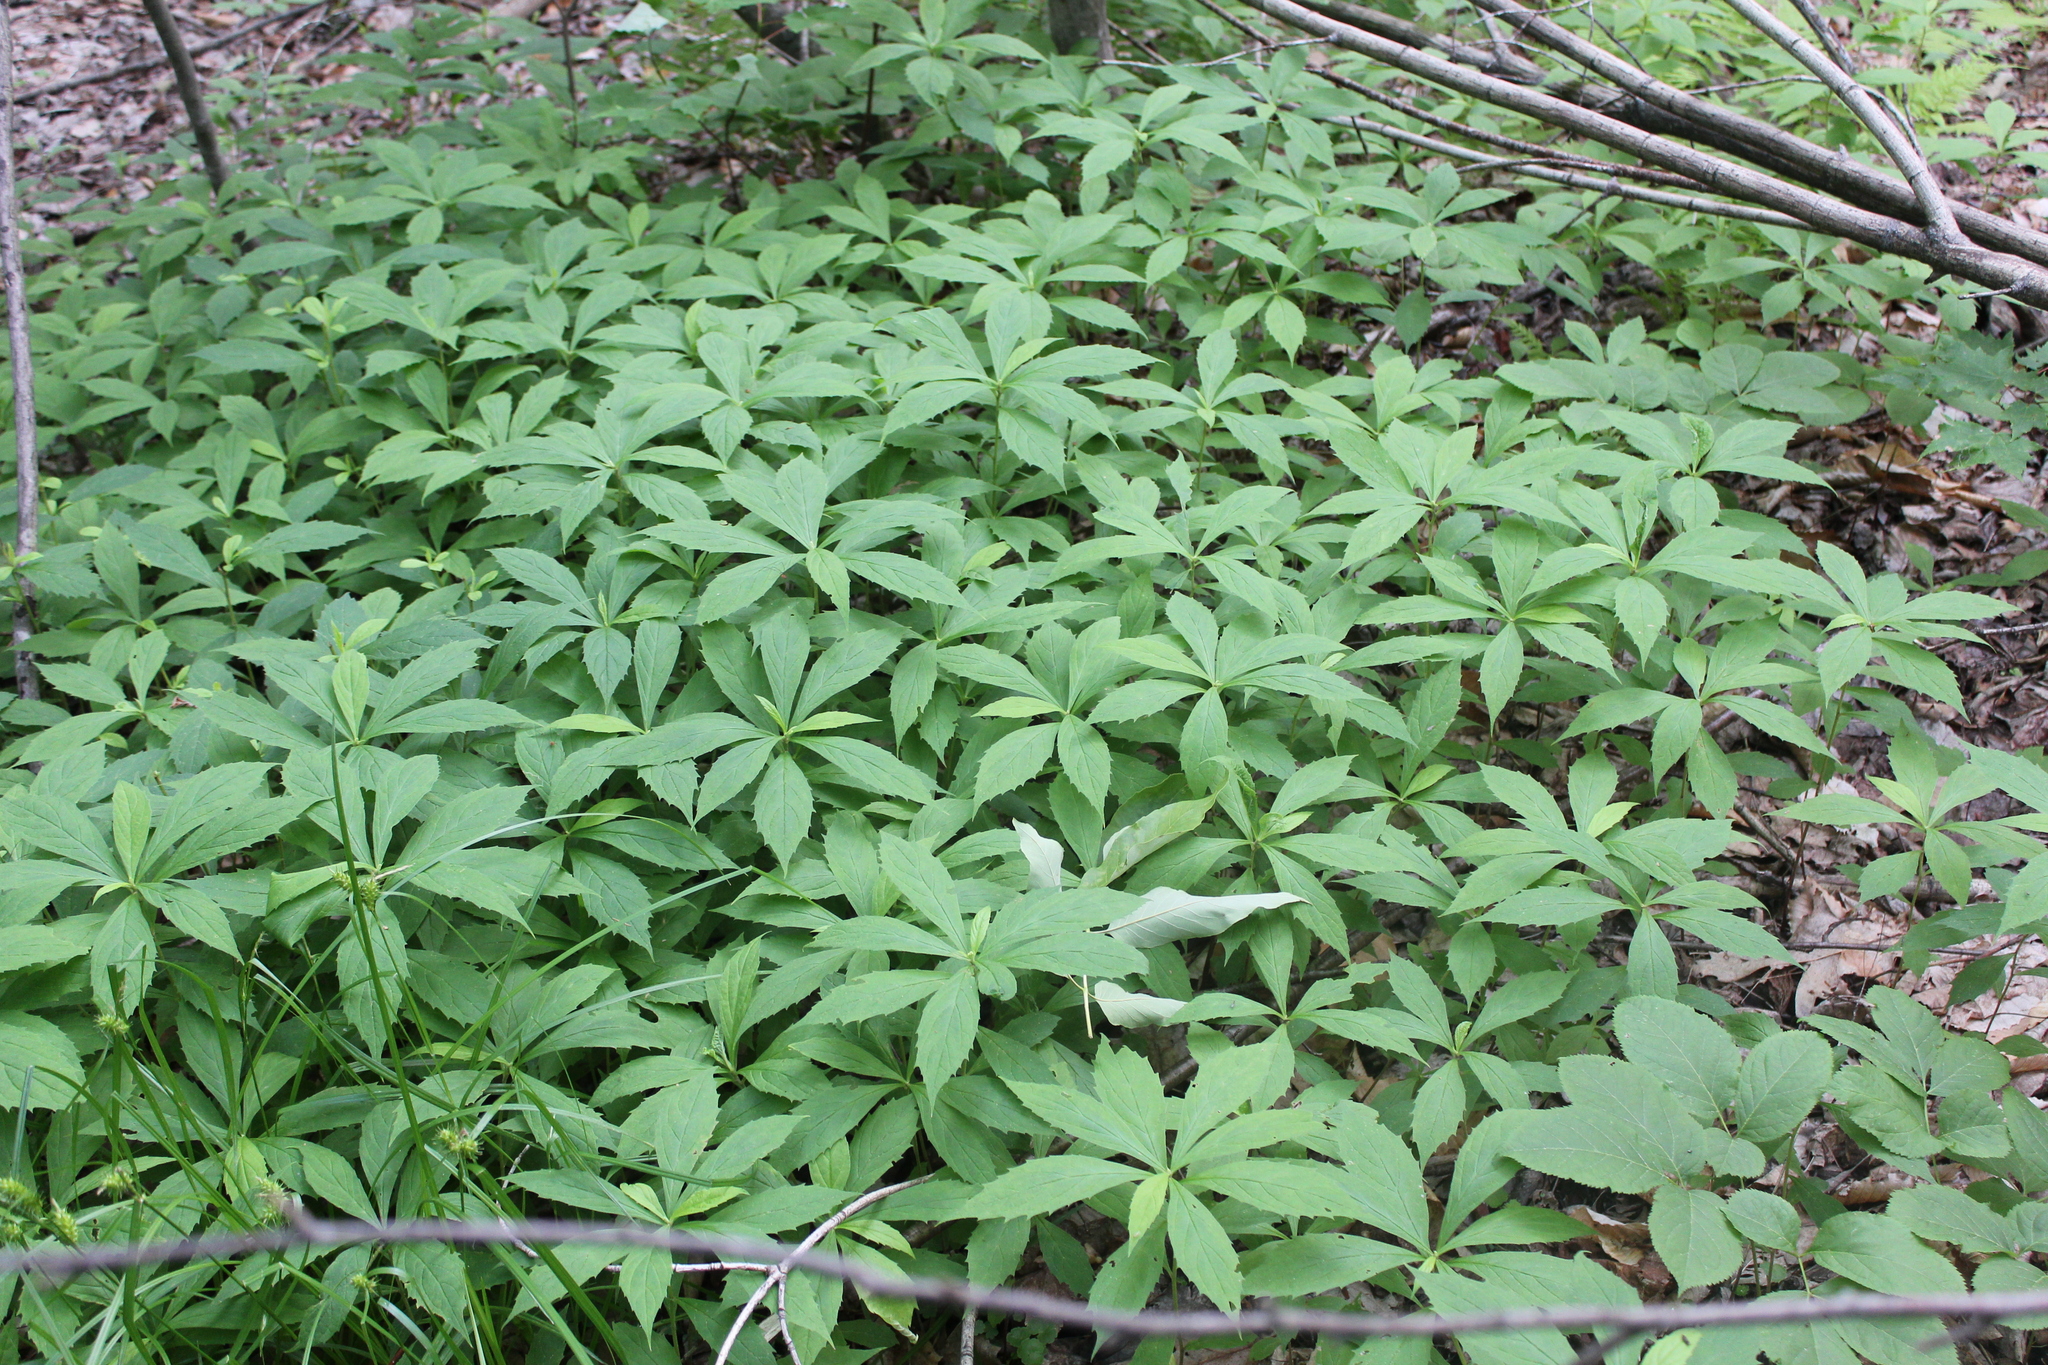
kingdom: Plantae
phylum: Tracheophyta
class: Magnoliopsida
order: Asterales
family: Asteraceae
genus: Oclemena
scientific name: Oclemena acuminata
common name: Mountain aster
